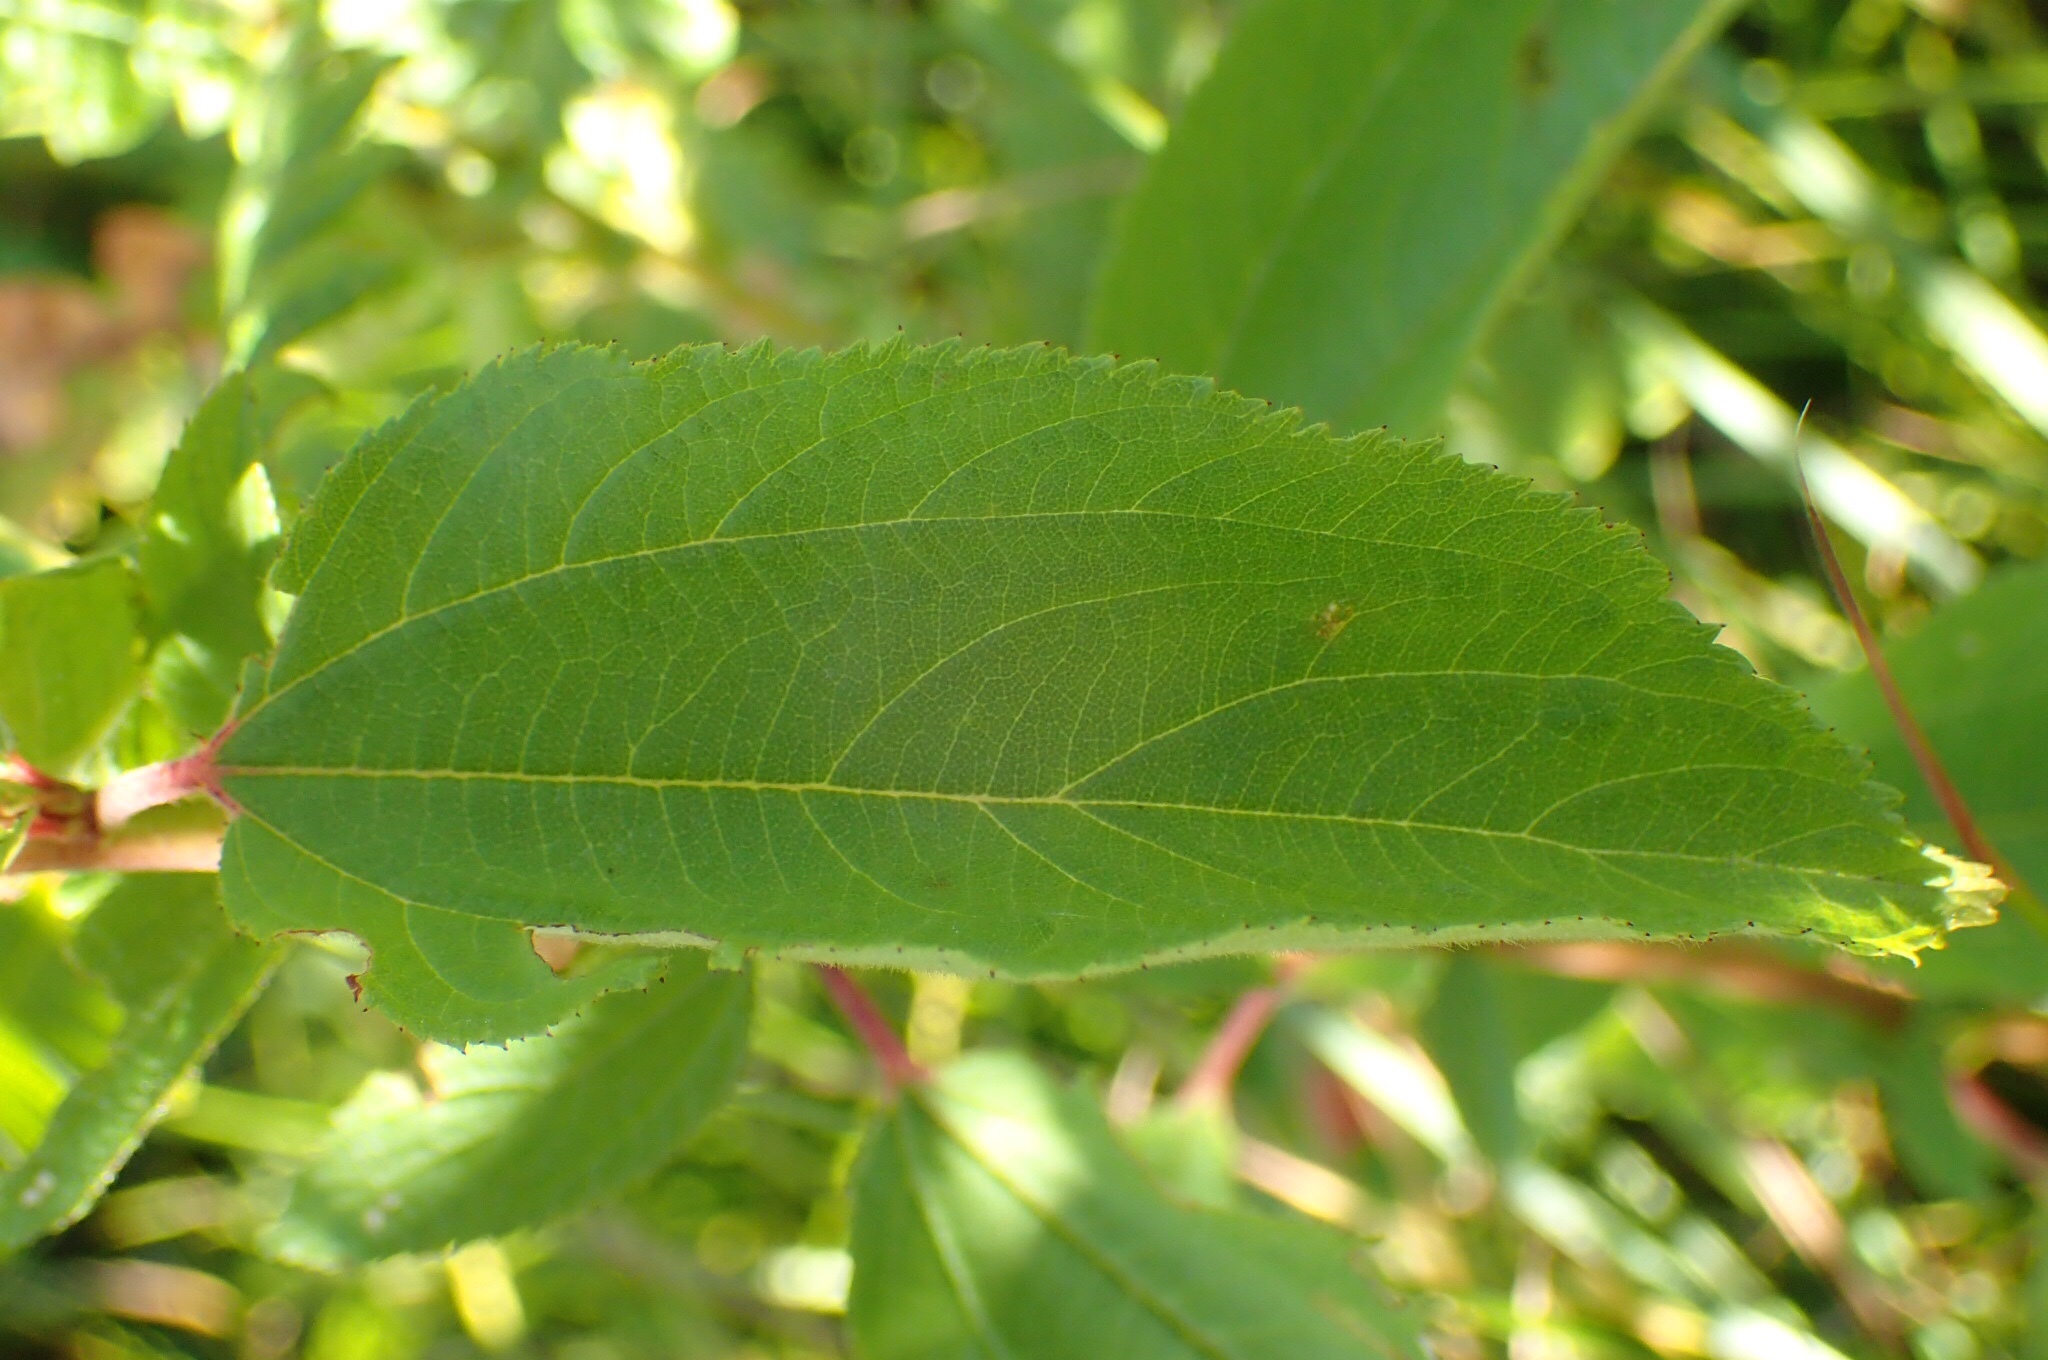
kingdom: Plantae
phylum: Tracheophyta
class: Magnoliopsida
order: Rosales
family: Rhamnaceae
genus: Ceanothus
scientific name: Ceanothus americanus
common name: Redroot
